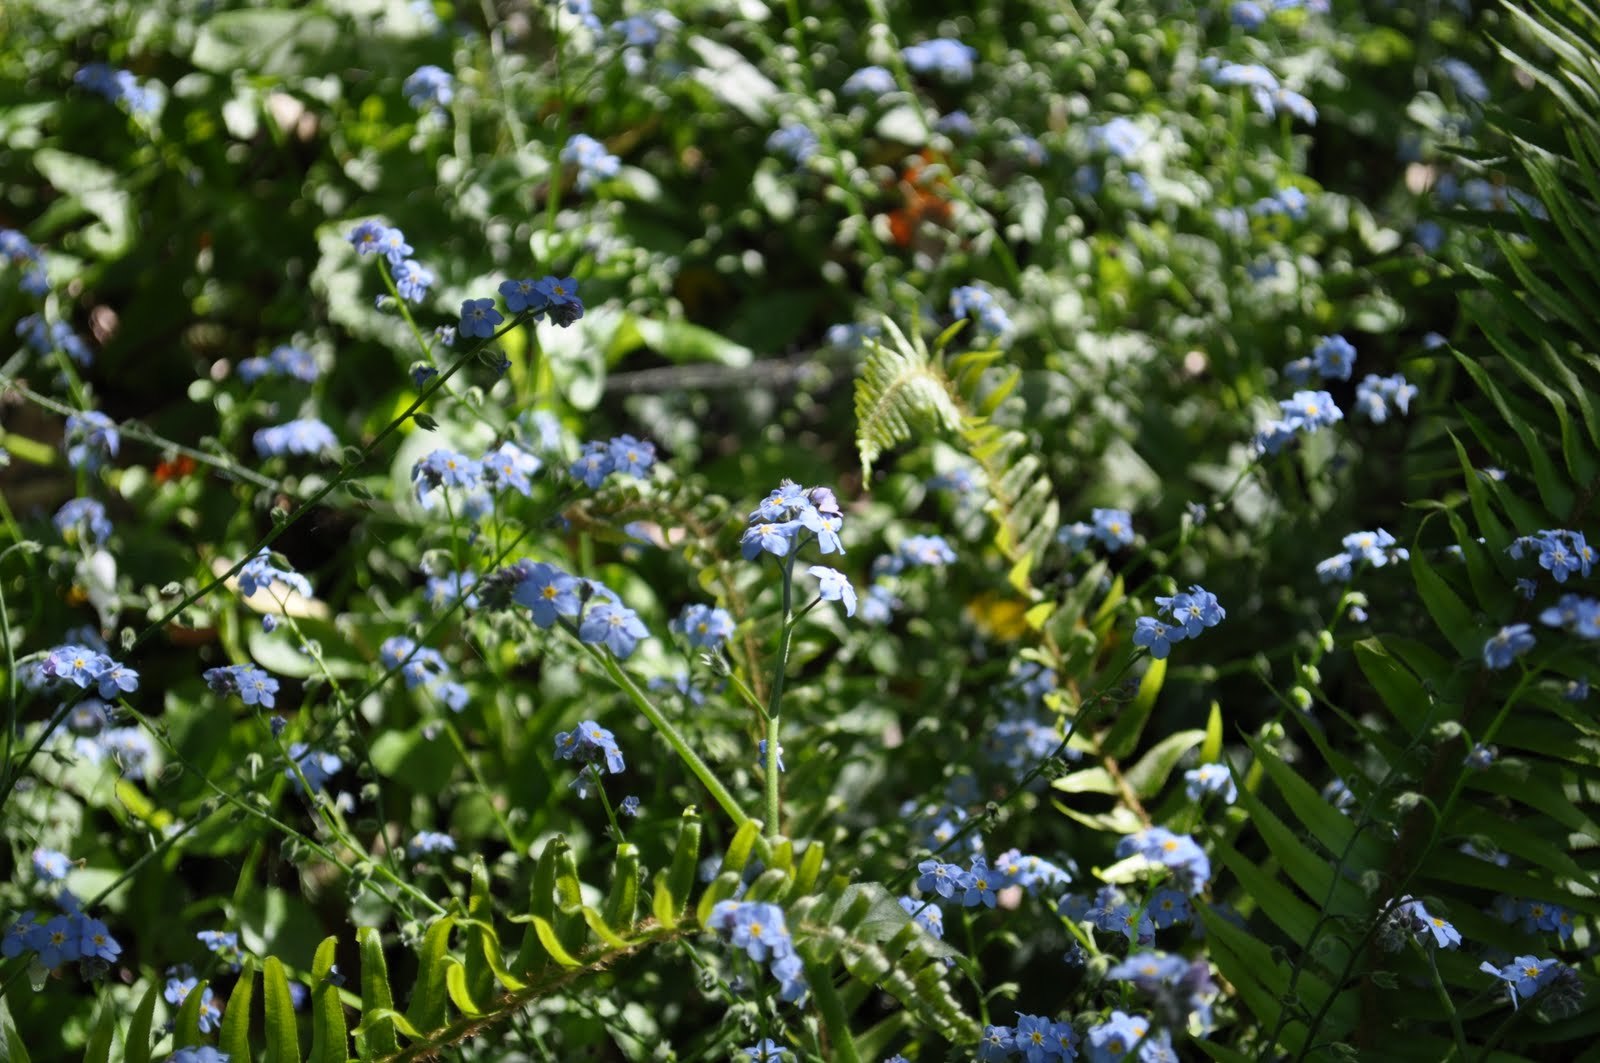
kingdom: Plantae
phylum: Tracheophyta
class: Magnoliopsida
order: Boraginales
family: Boraginaceae
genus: Myosotis
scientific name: Myosotis latifolia
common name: Broadleaf forget-me-not
